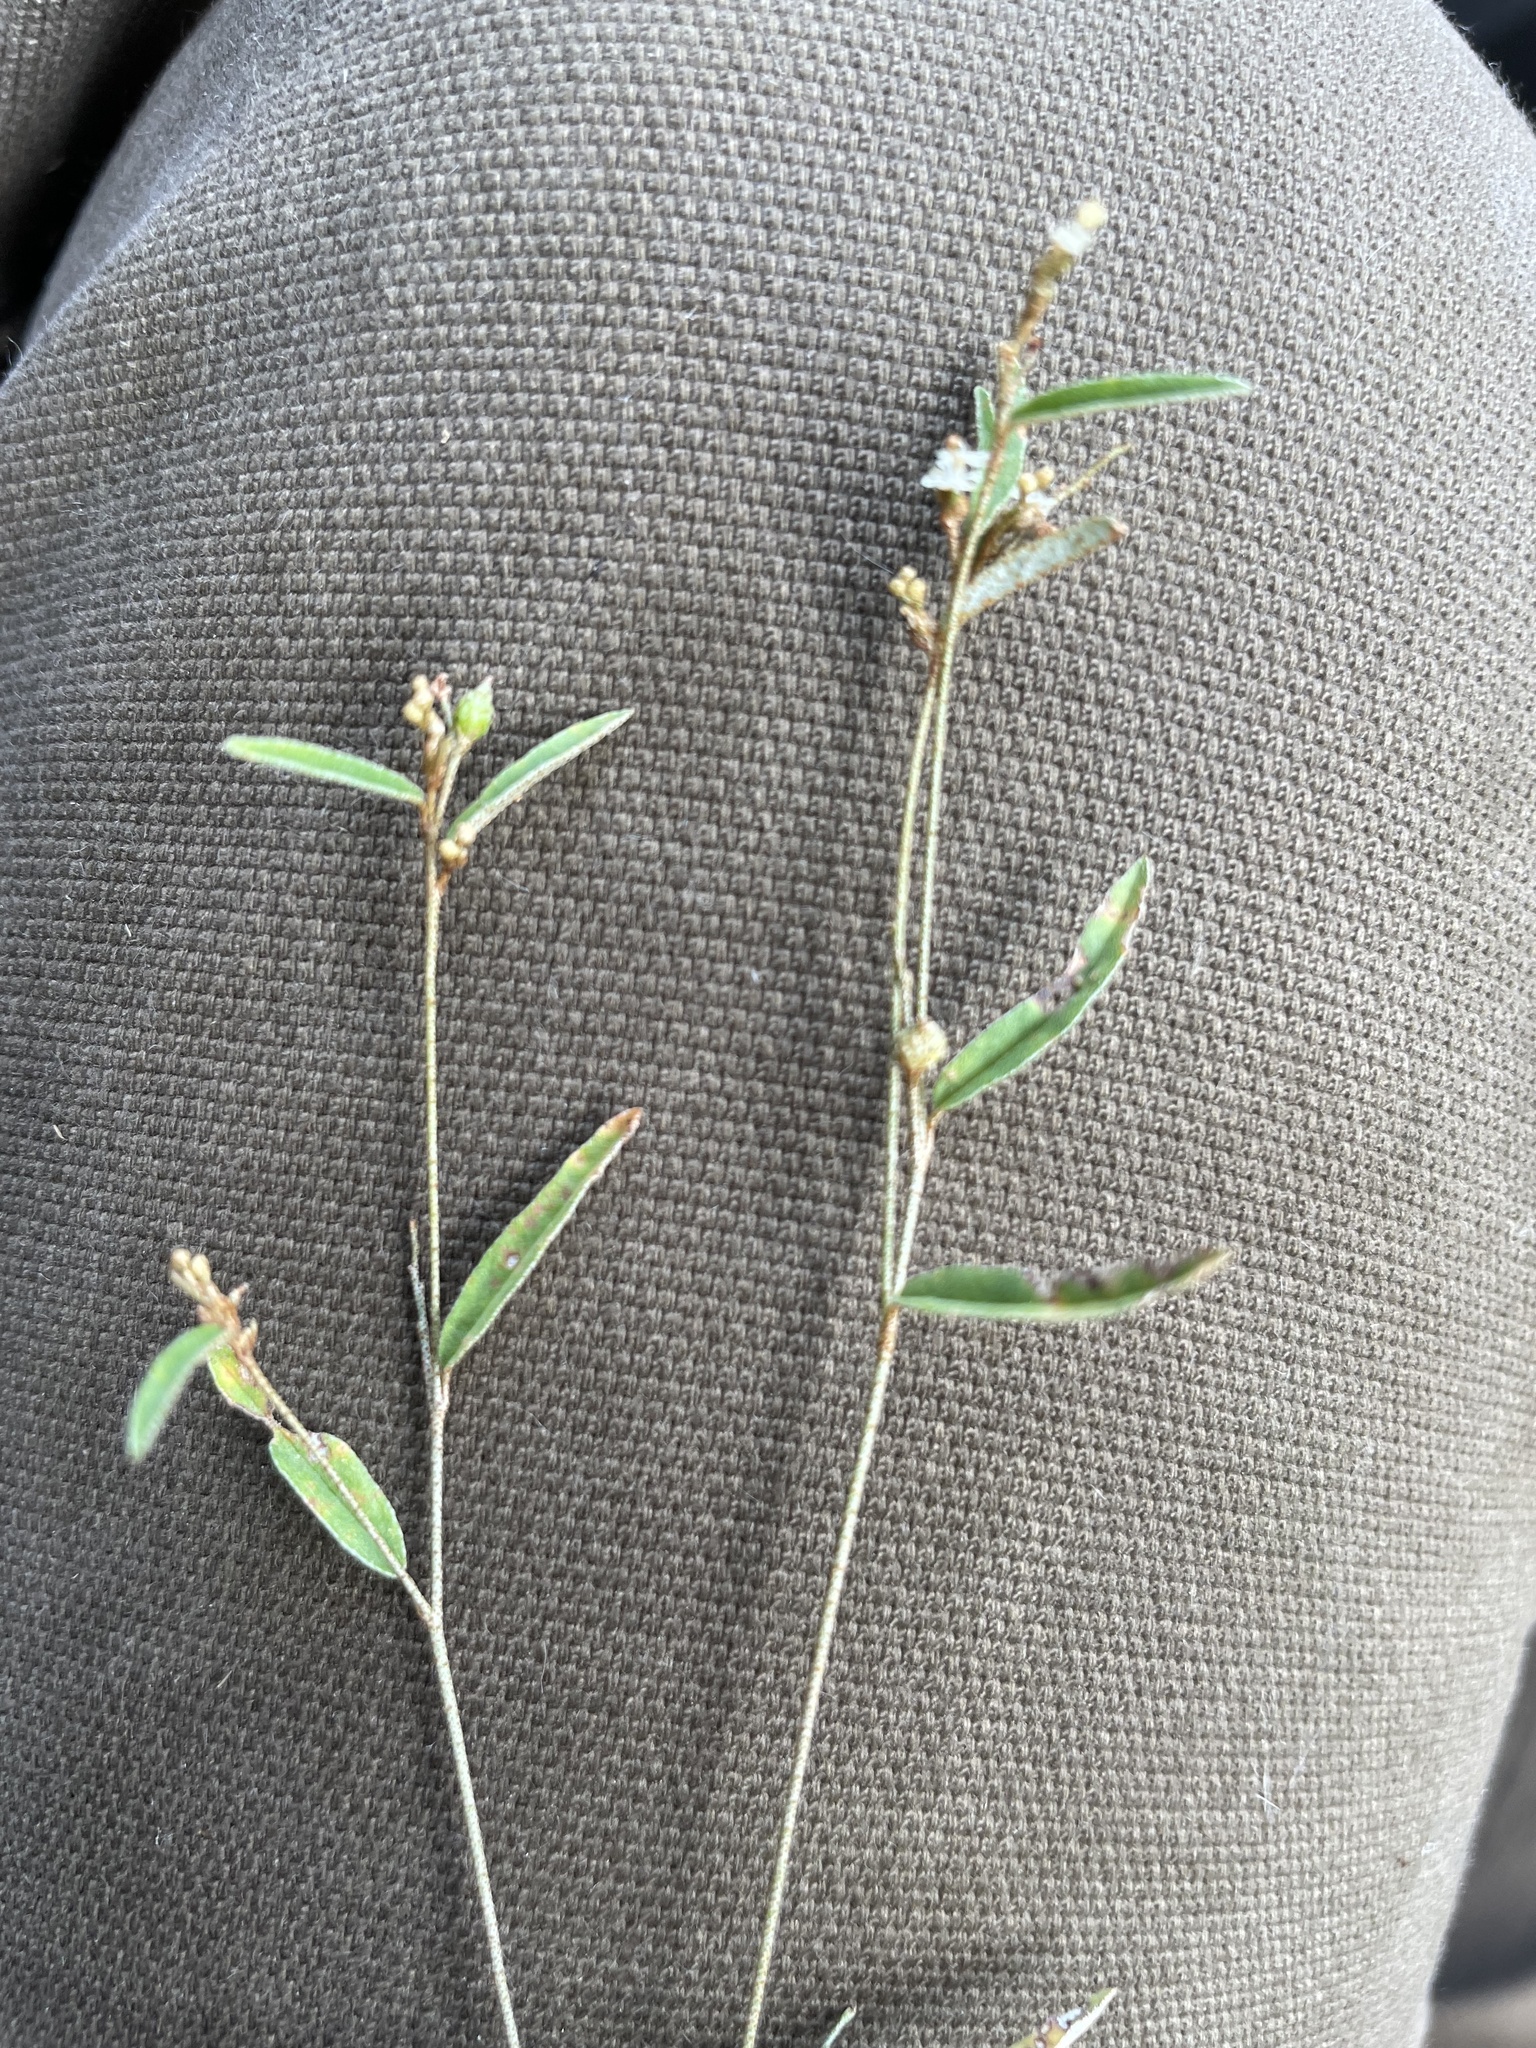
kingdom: Plantae
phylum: Tracheophyta
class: Magnoliopsida
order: Malpighiales
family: Euphorbiaceae
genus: Croton
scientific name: Croton michauxii
